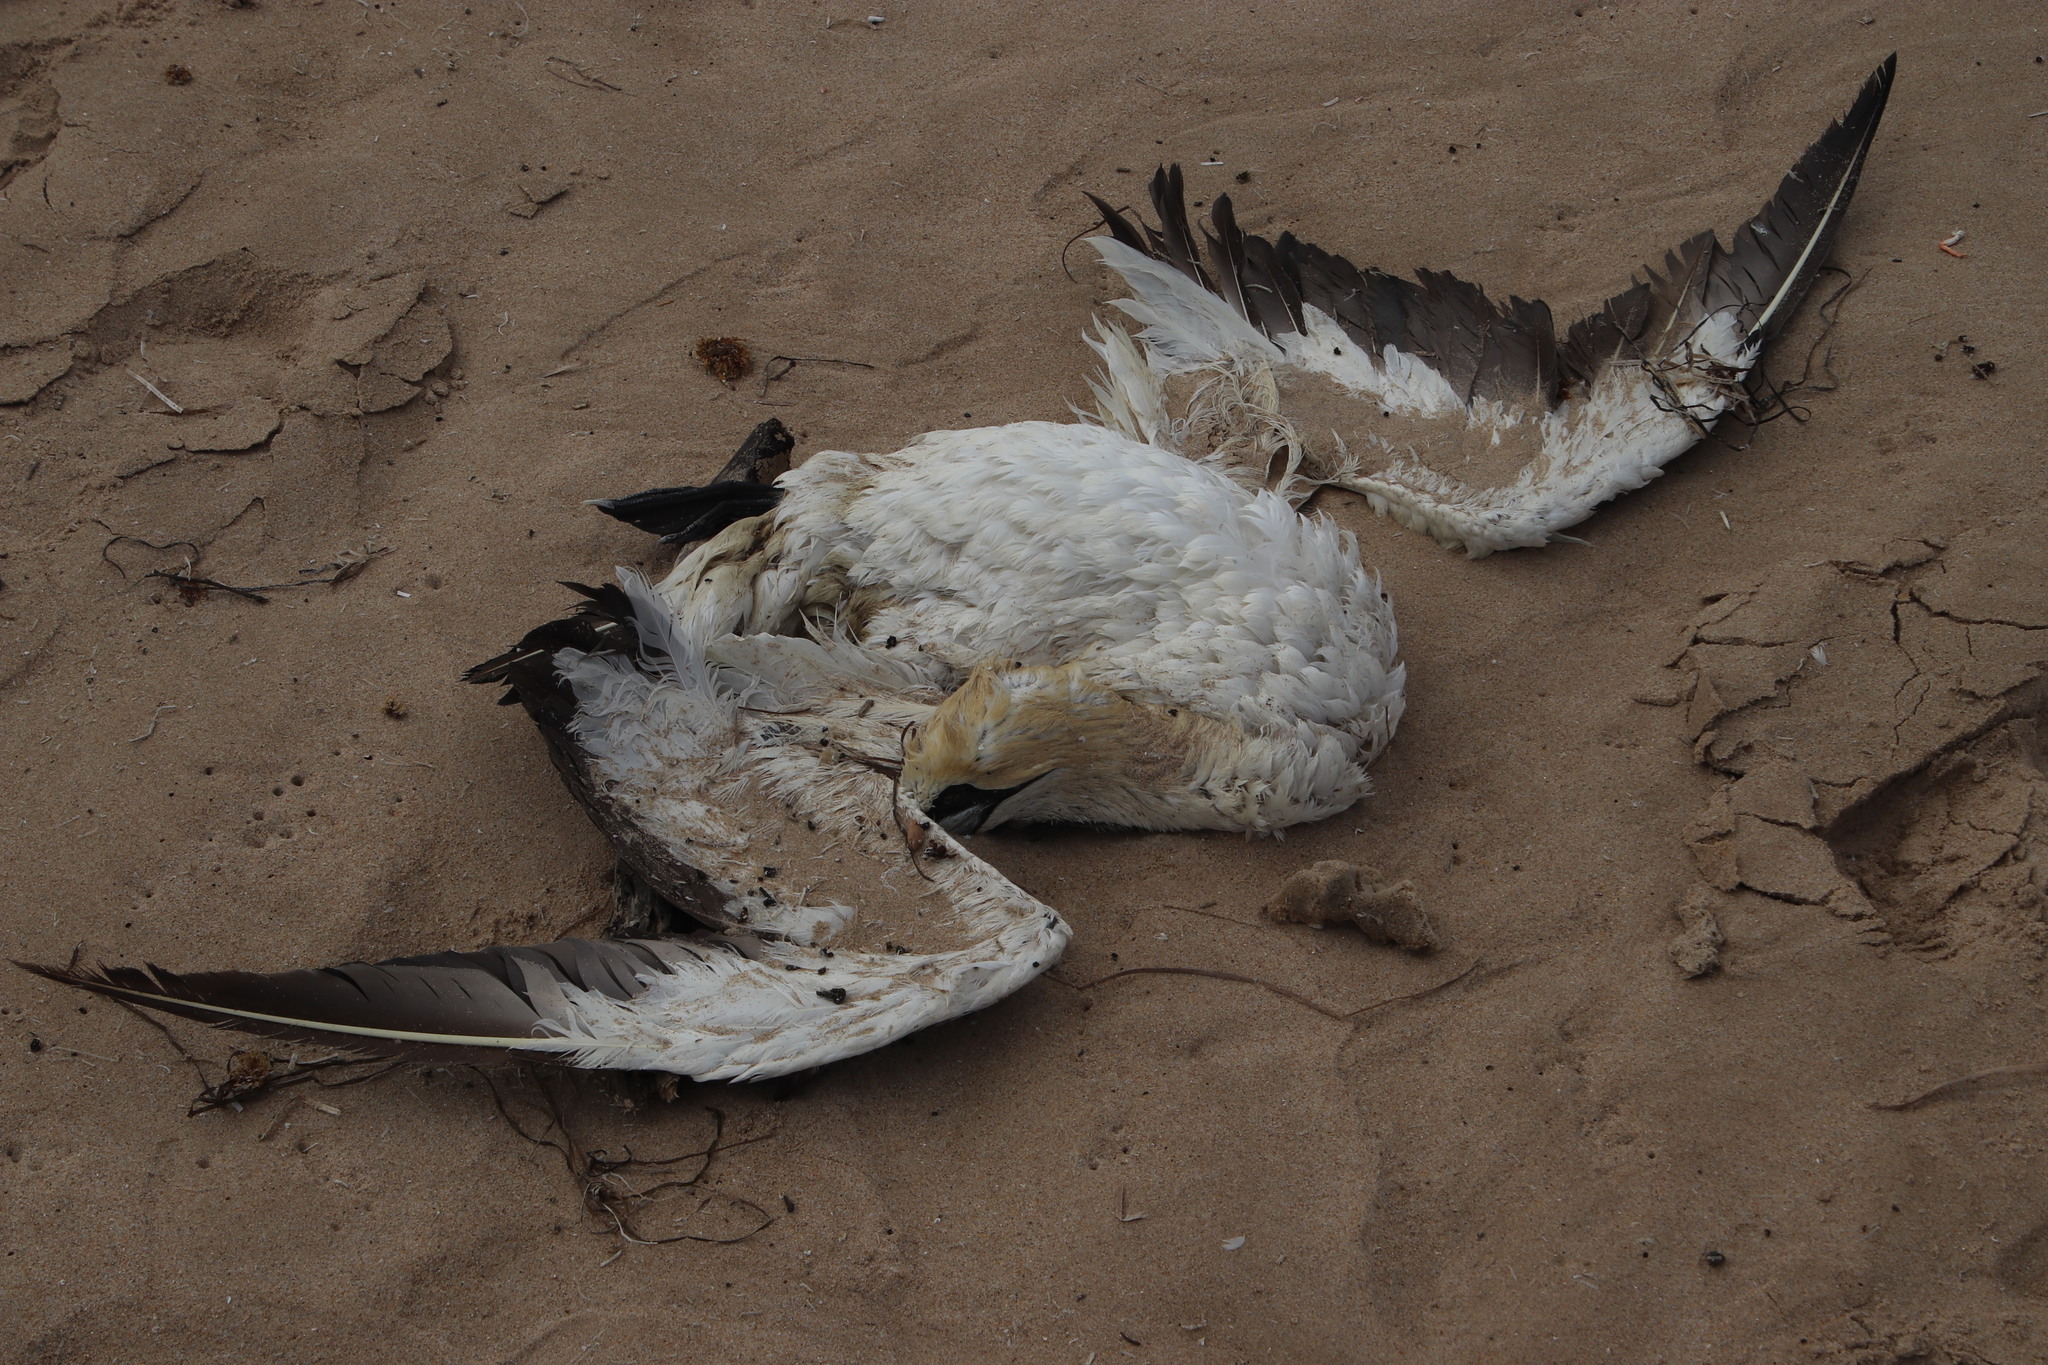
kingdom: Animalia
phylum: Chordata
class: Aves
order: Suliformes
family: Sulidae
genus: Morus
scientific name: Morus capensis
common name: Cape gannet
